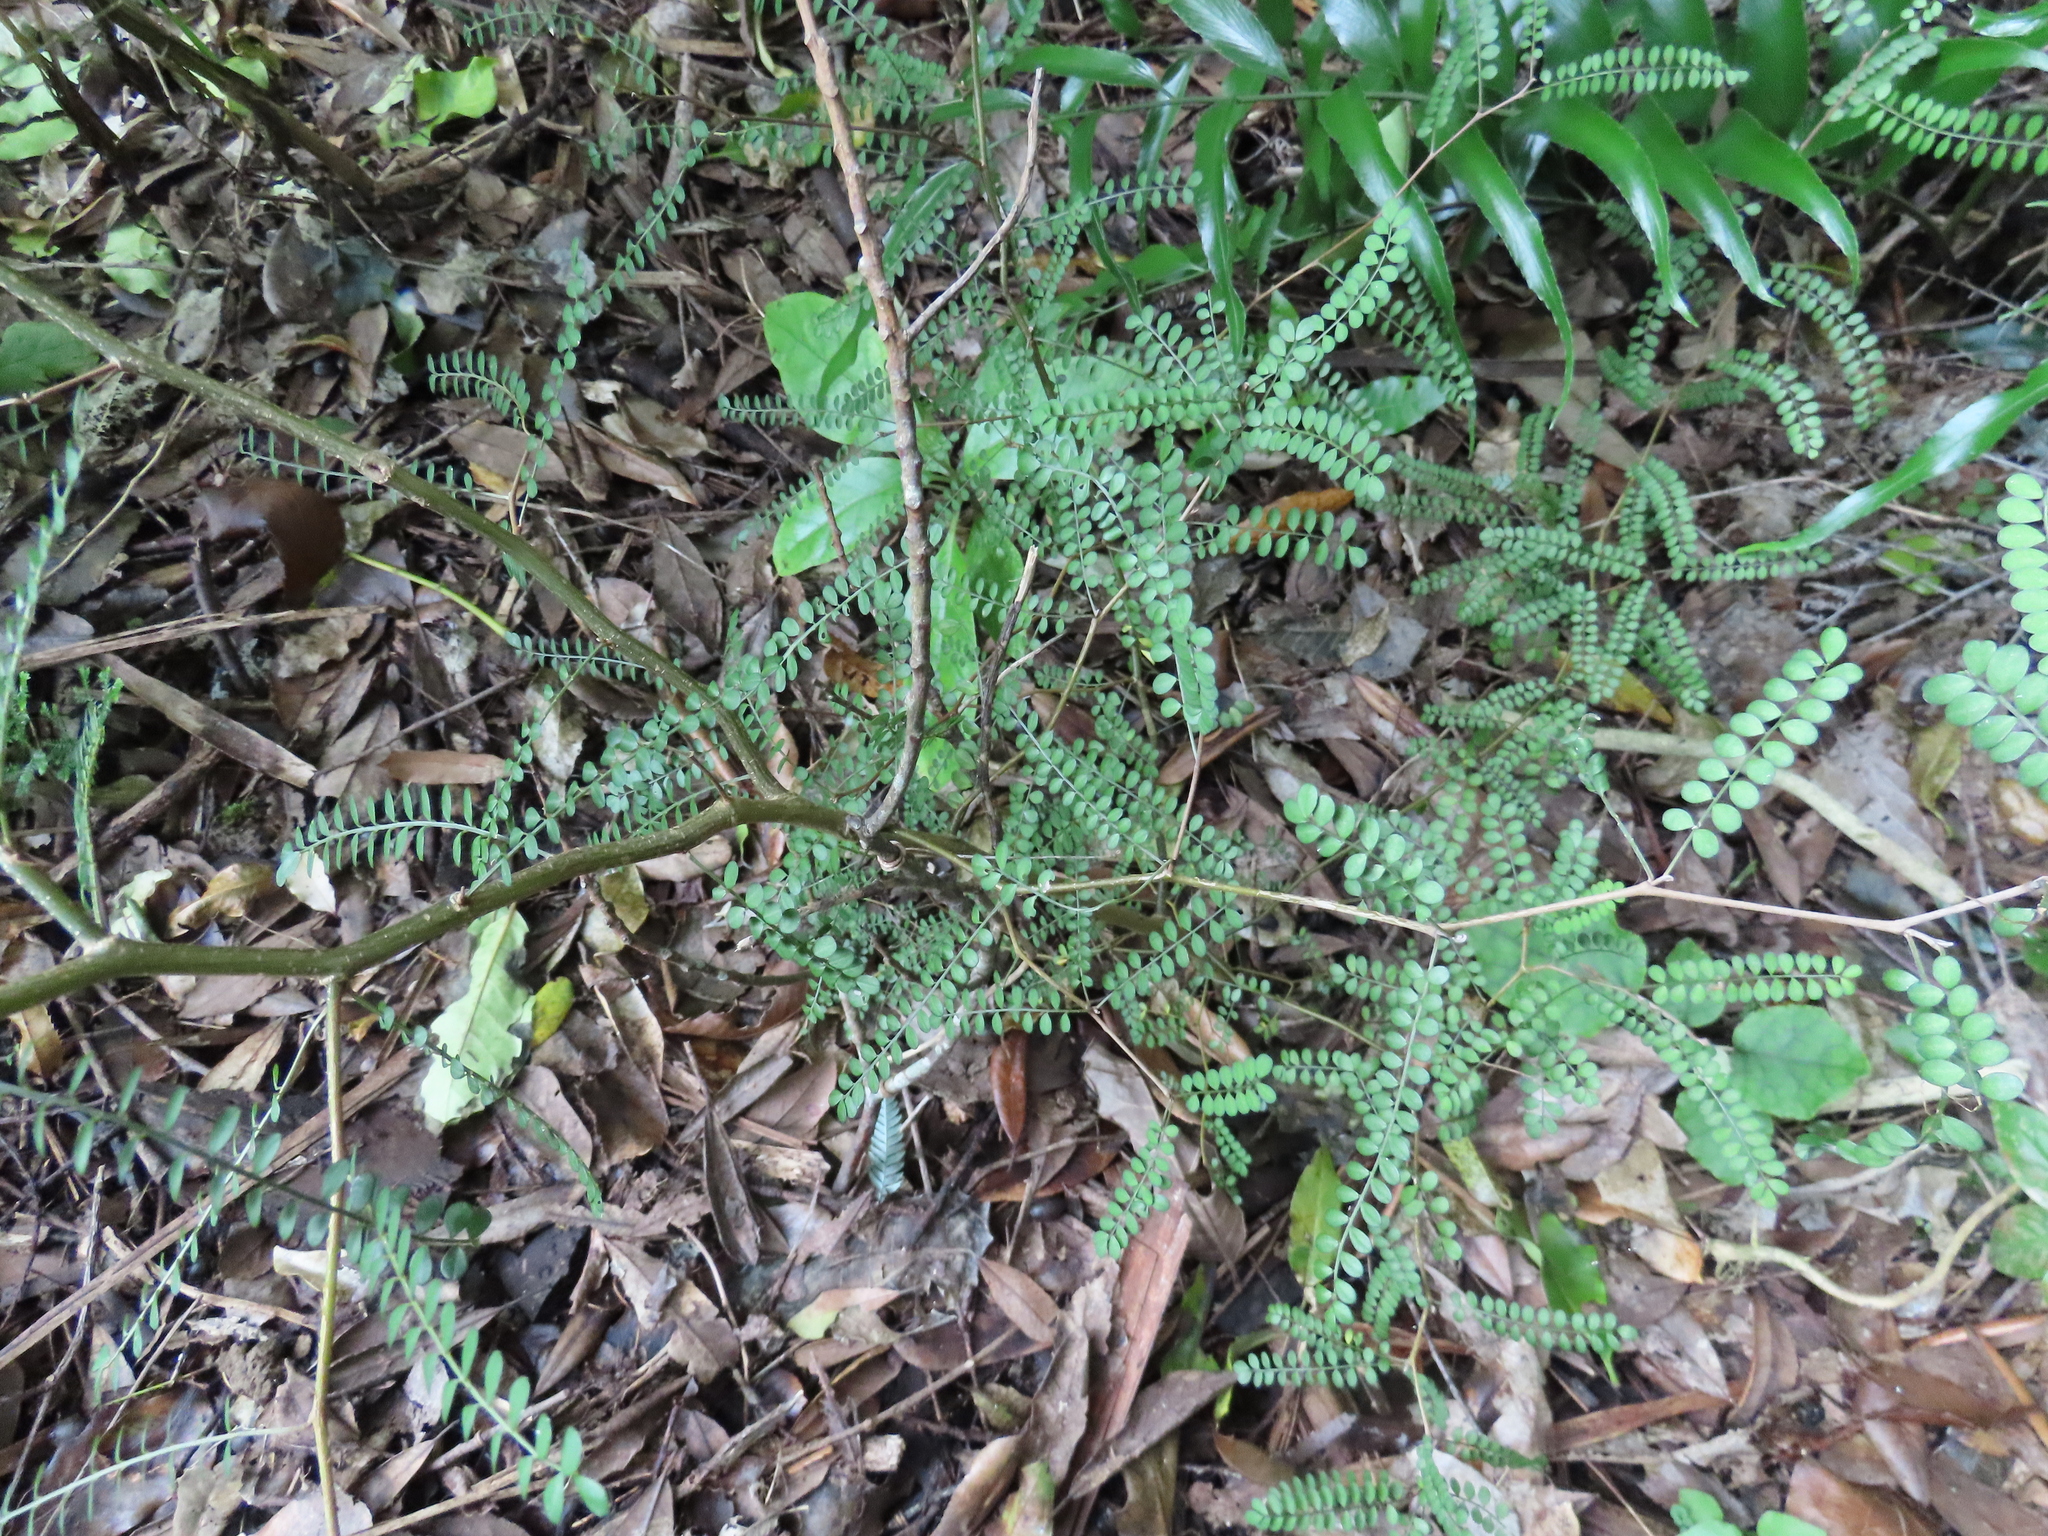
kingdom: Plantae
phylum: Tracheophyta
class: Magnoliopsida
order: Fabales
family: Fabaceae
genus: Sophora
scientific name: Sophora microphylla
